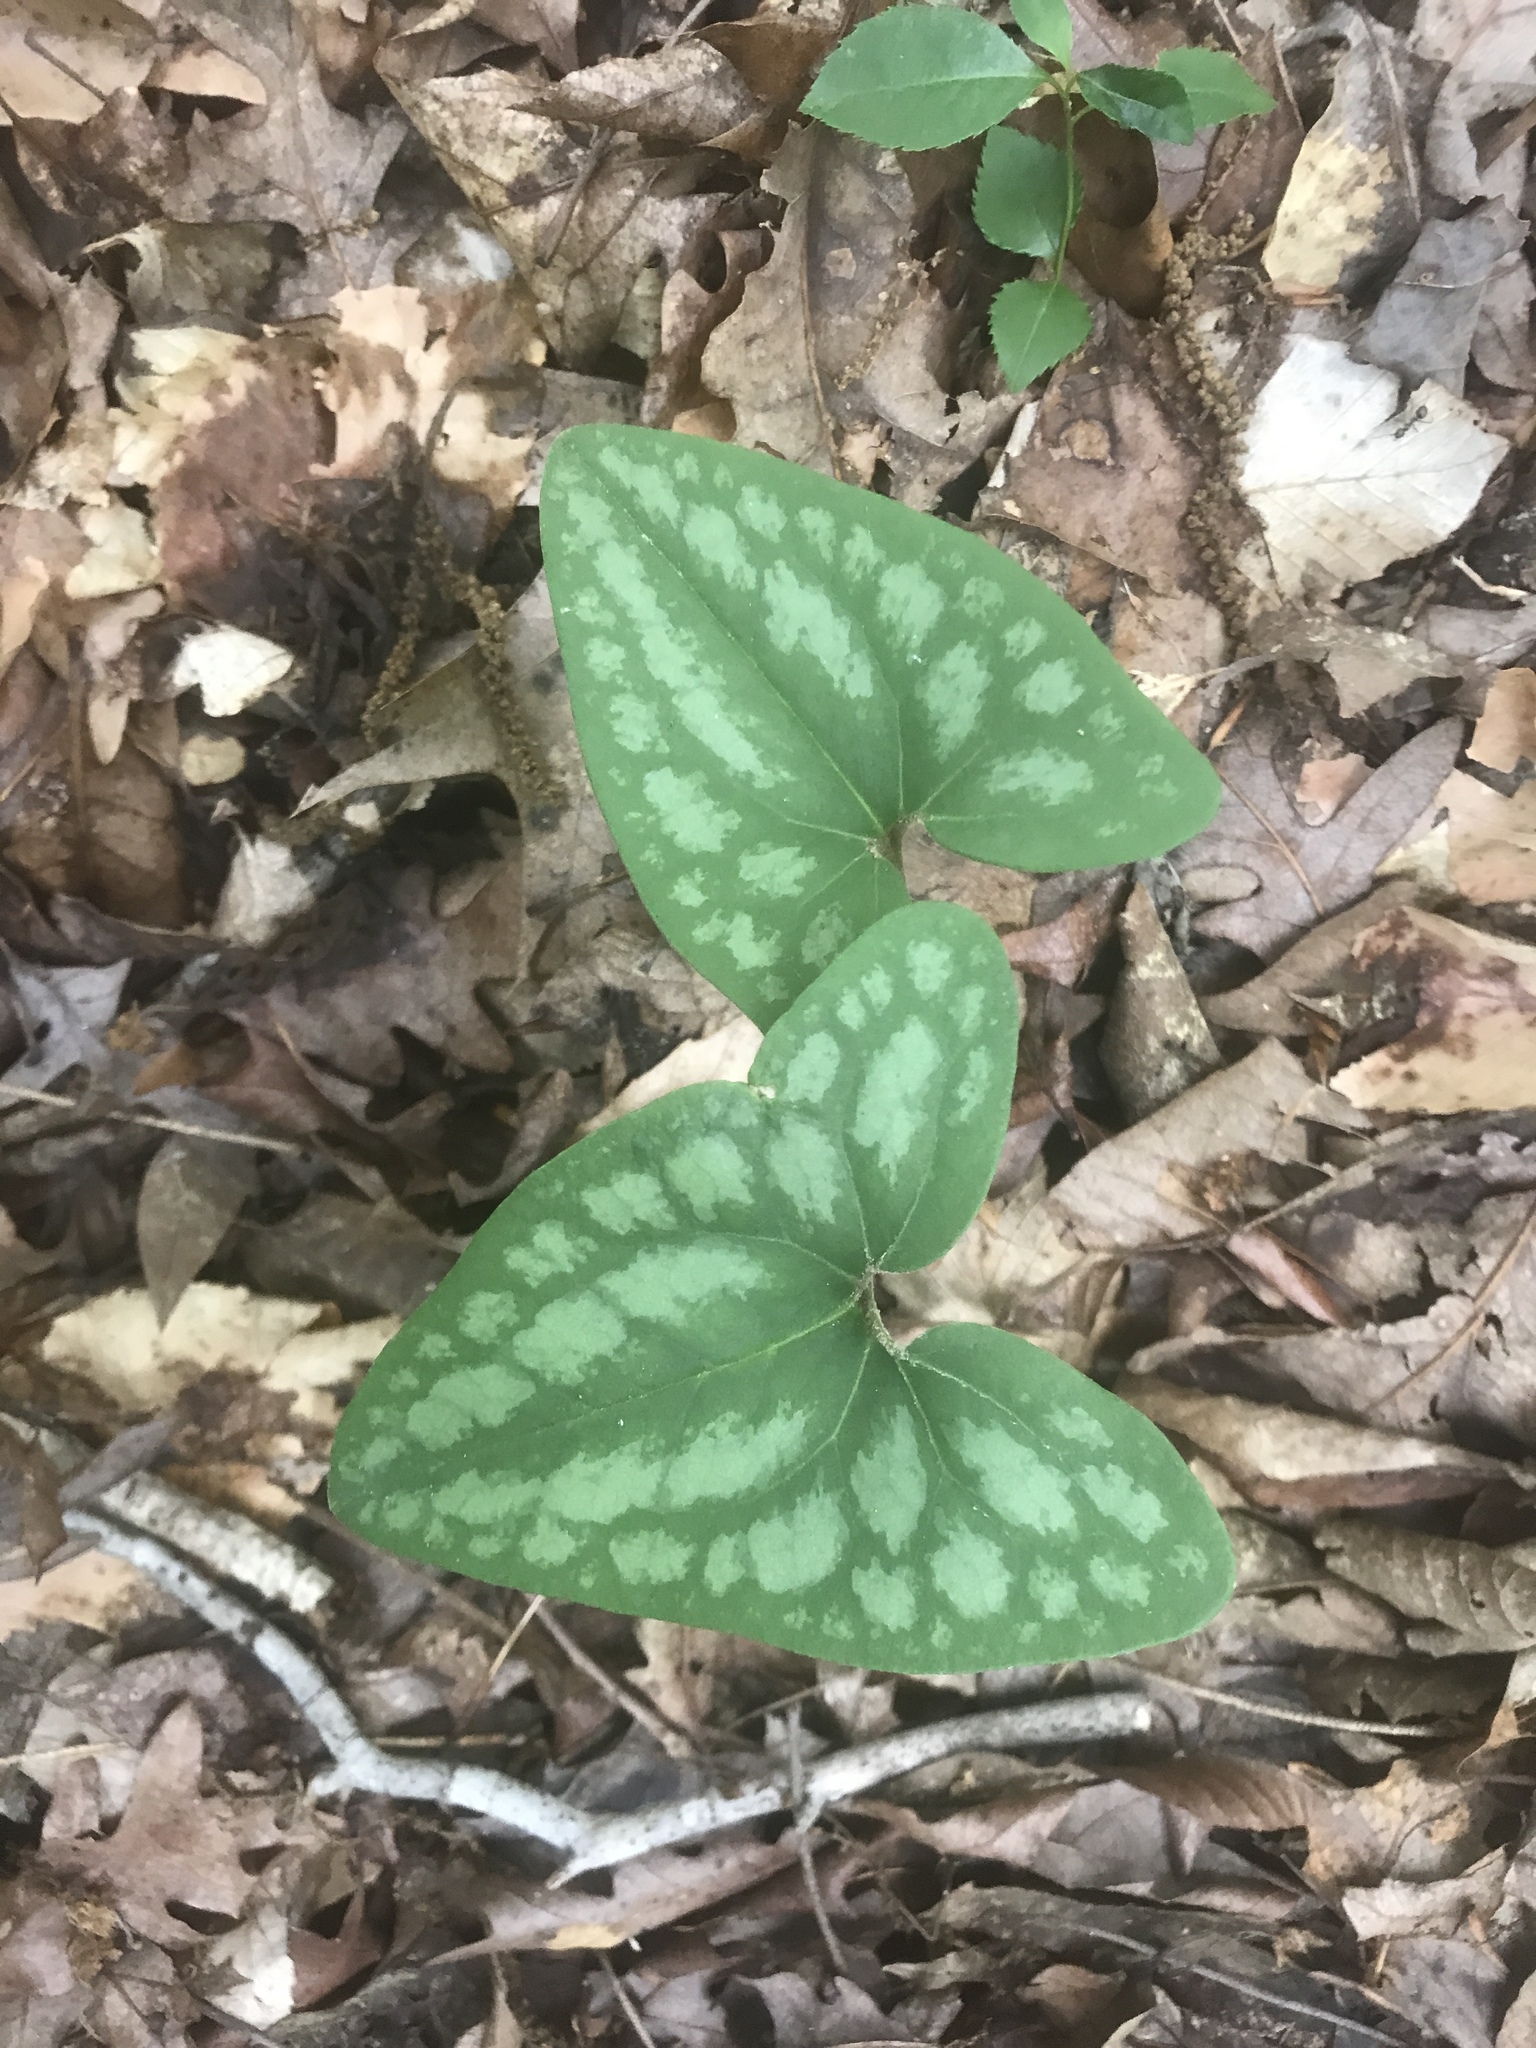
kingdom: Plantae
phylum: Tracheophyta
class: Magnoliopsida
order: Piperales
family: Aristolochiaceae
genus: Hexastylis
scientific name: Hexastylis arifolia
